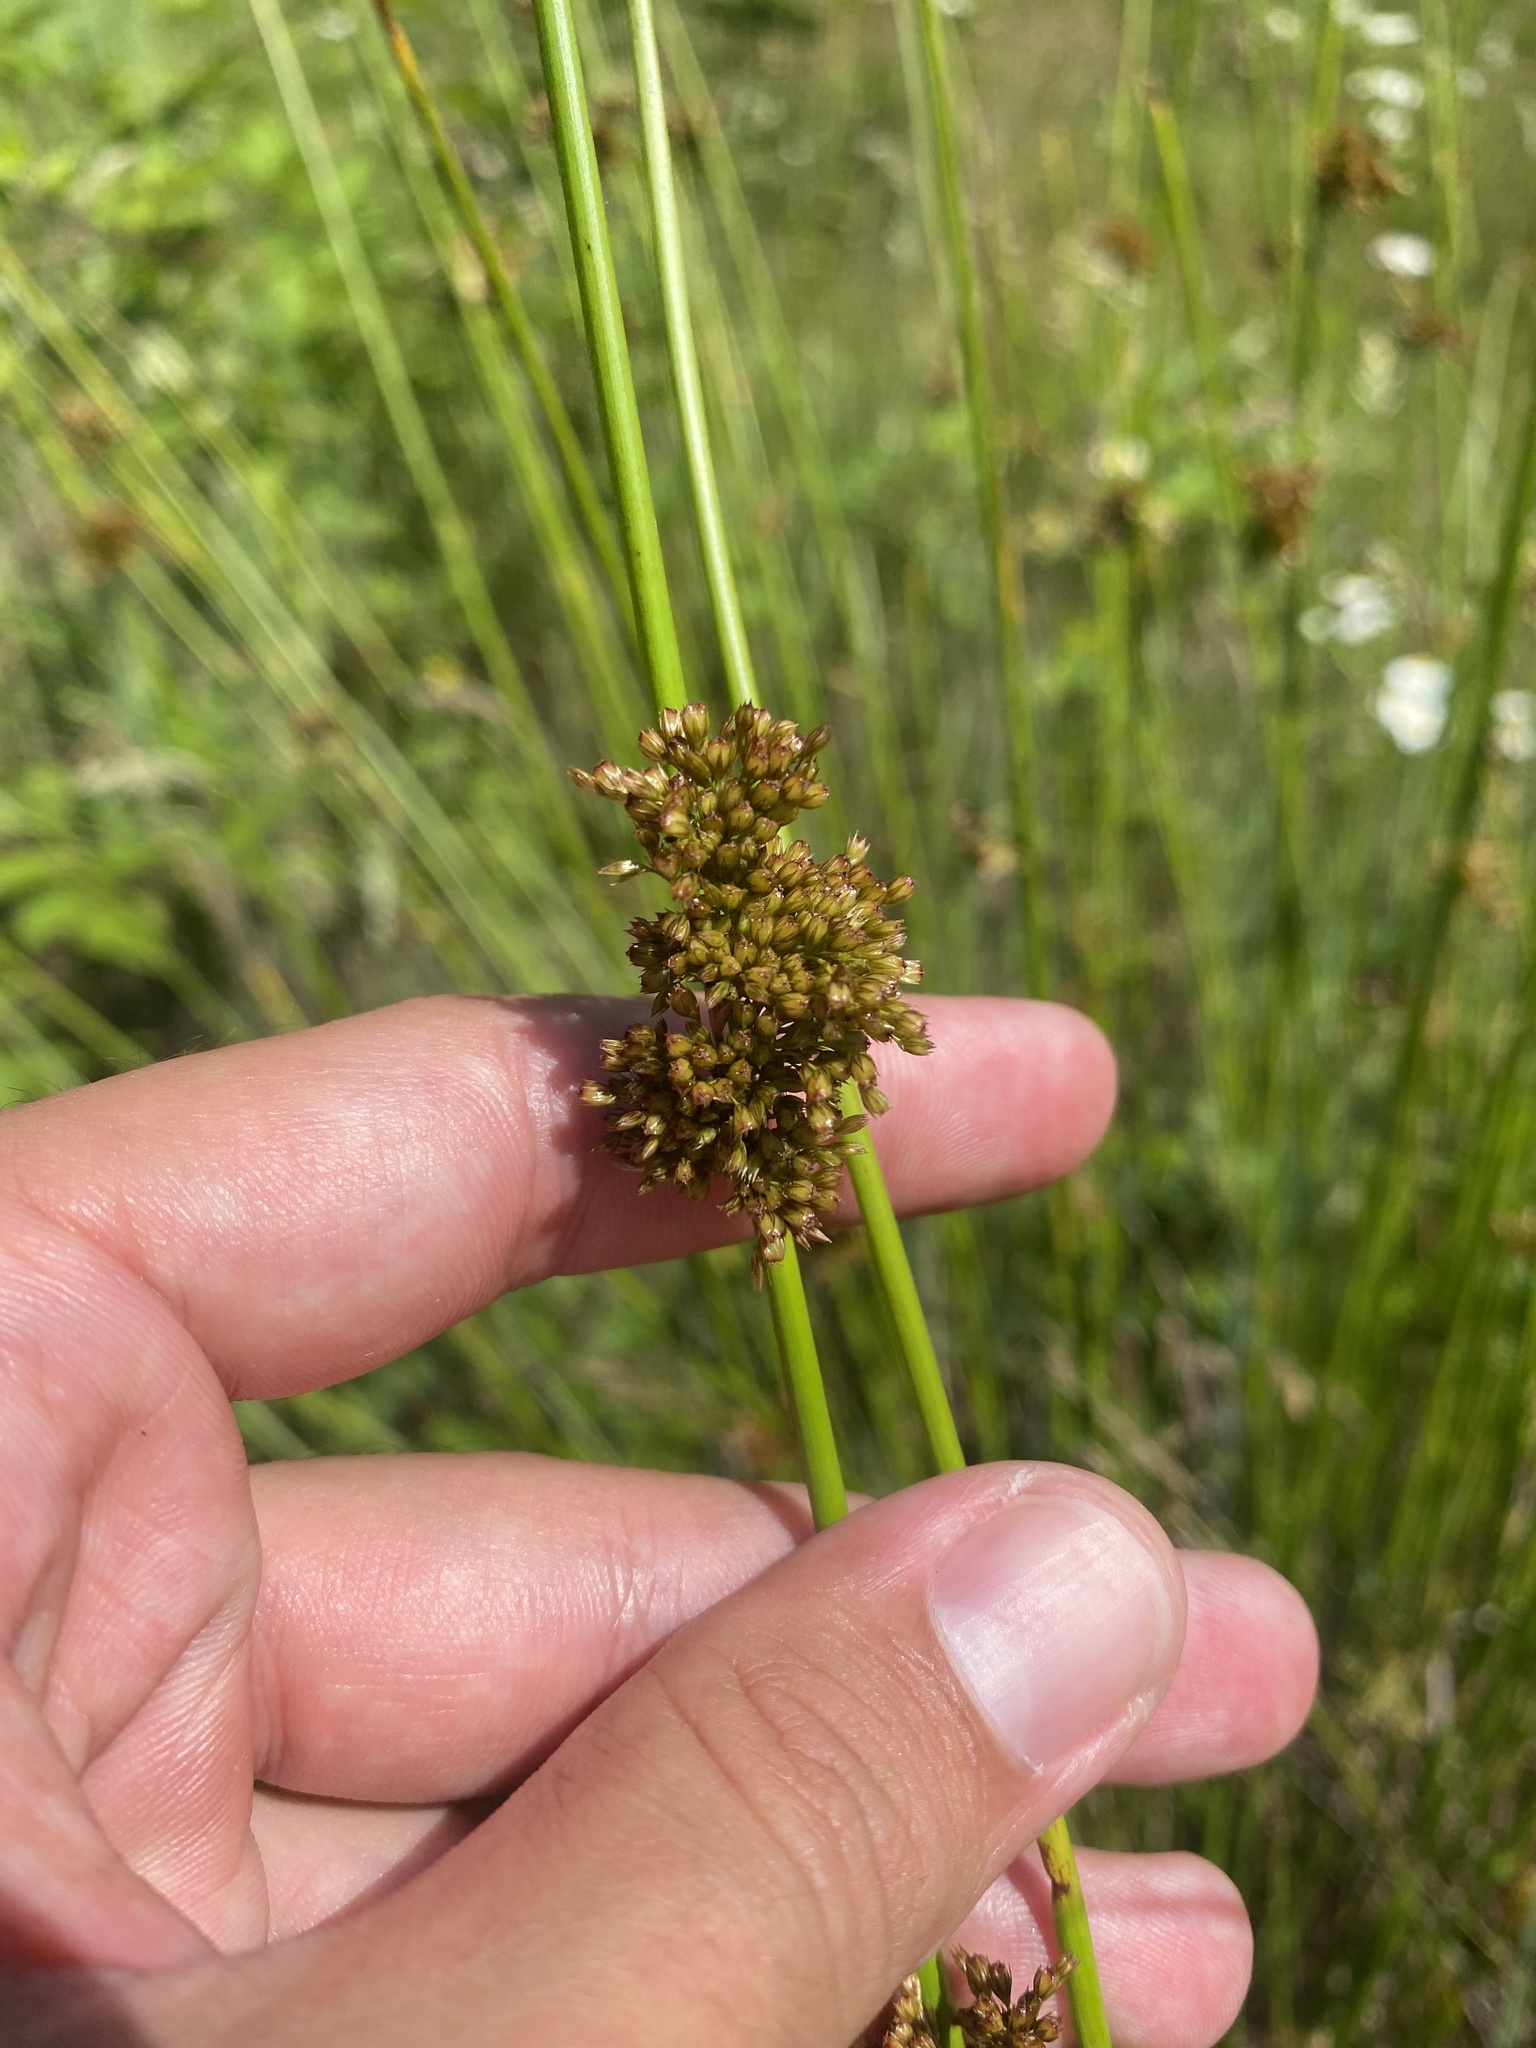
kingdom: Plantae
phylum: Tracheophyta
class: Liliopsida
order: Poales
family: Juncaceae
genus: Juncus
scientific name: Juncus effusus
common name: Soft rush
